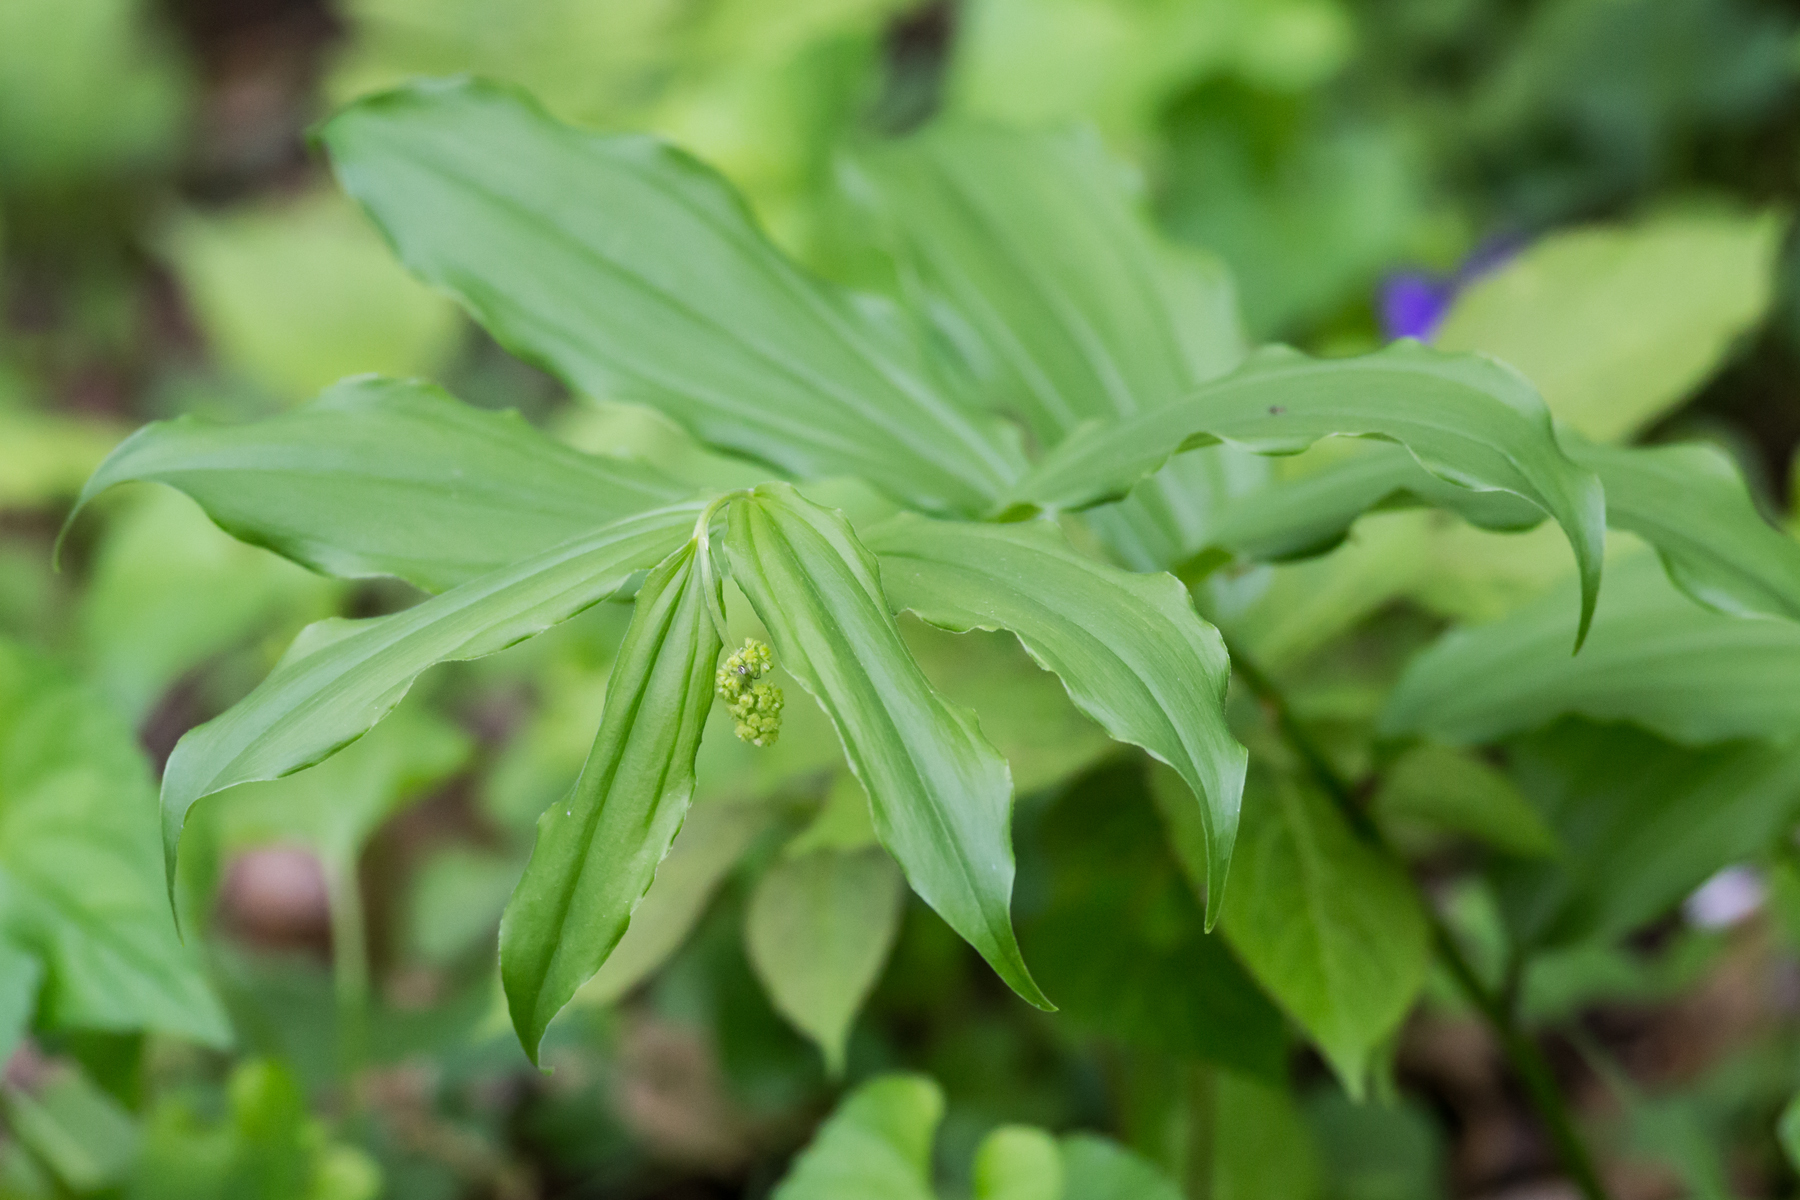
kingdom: Plantae
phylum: Tracheophyta
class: Liliopsida
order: Asparagales
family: Asparagaceae
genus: Maianthemum
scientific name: Maianthemum racemosum
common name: False spikenard
